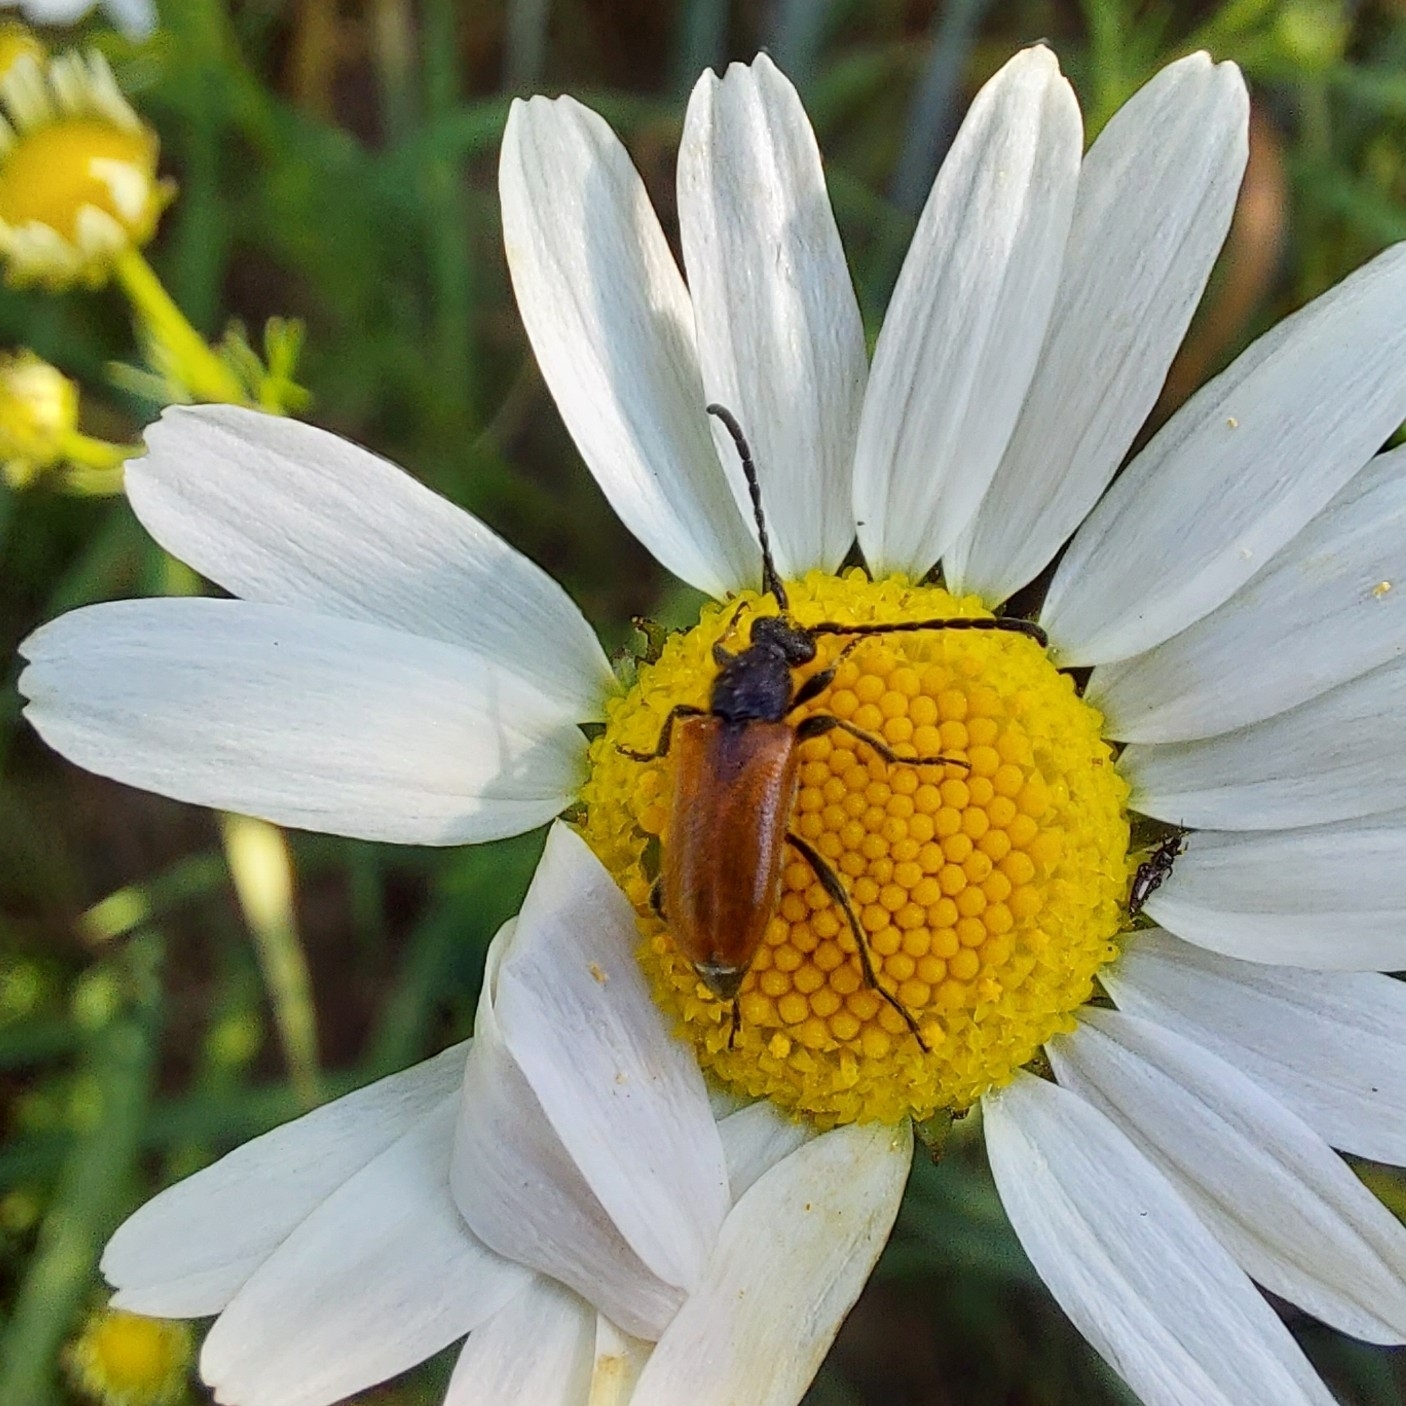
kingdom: Animalia
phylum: Arthropoda
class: Insecta
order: Coleoptera
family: Cerambycidae
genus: Pseudovadonia
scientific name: Pseudovadonia livida
